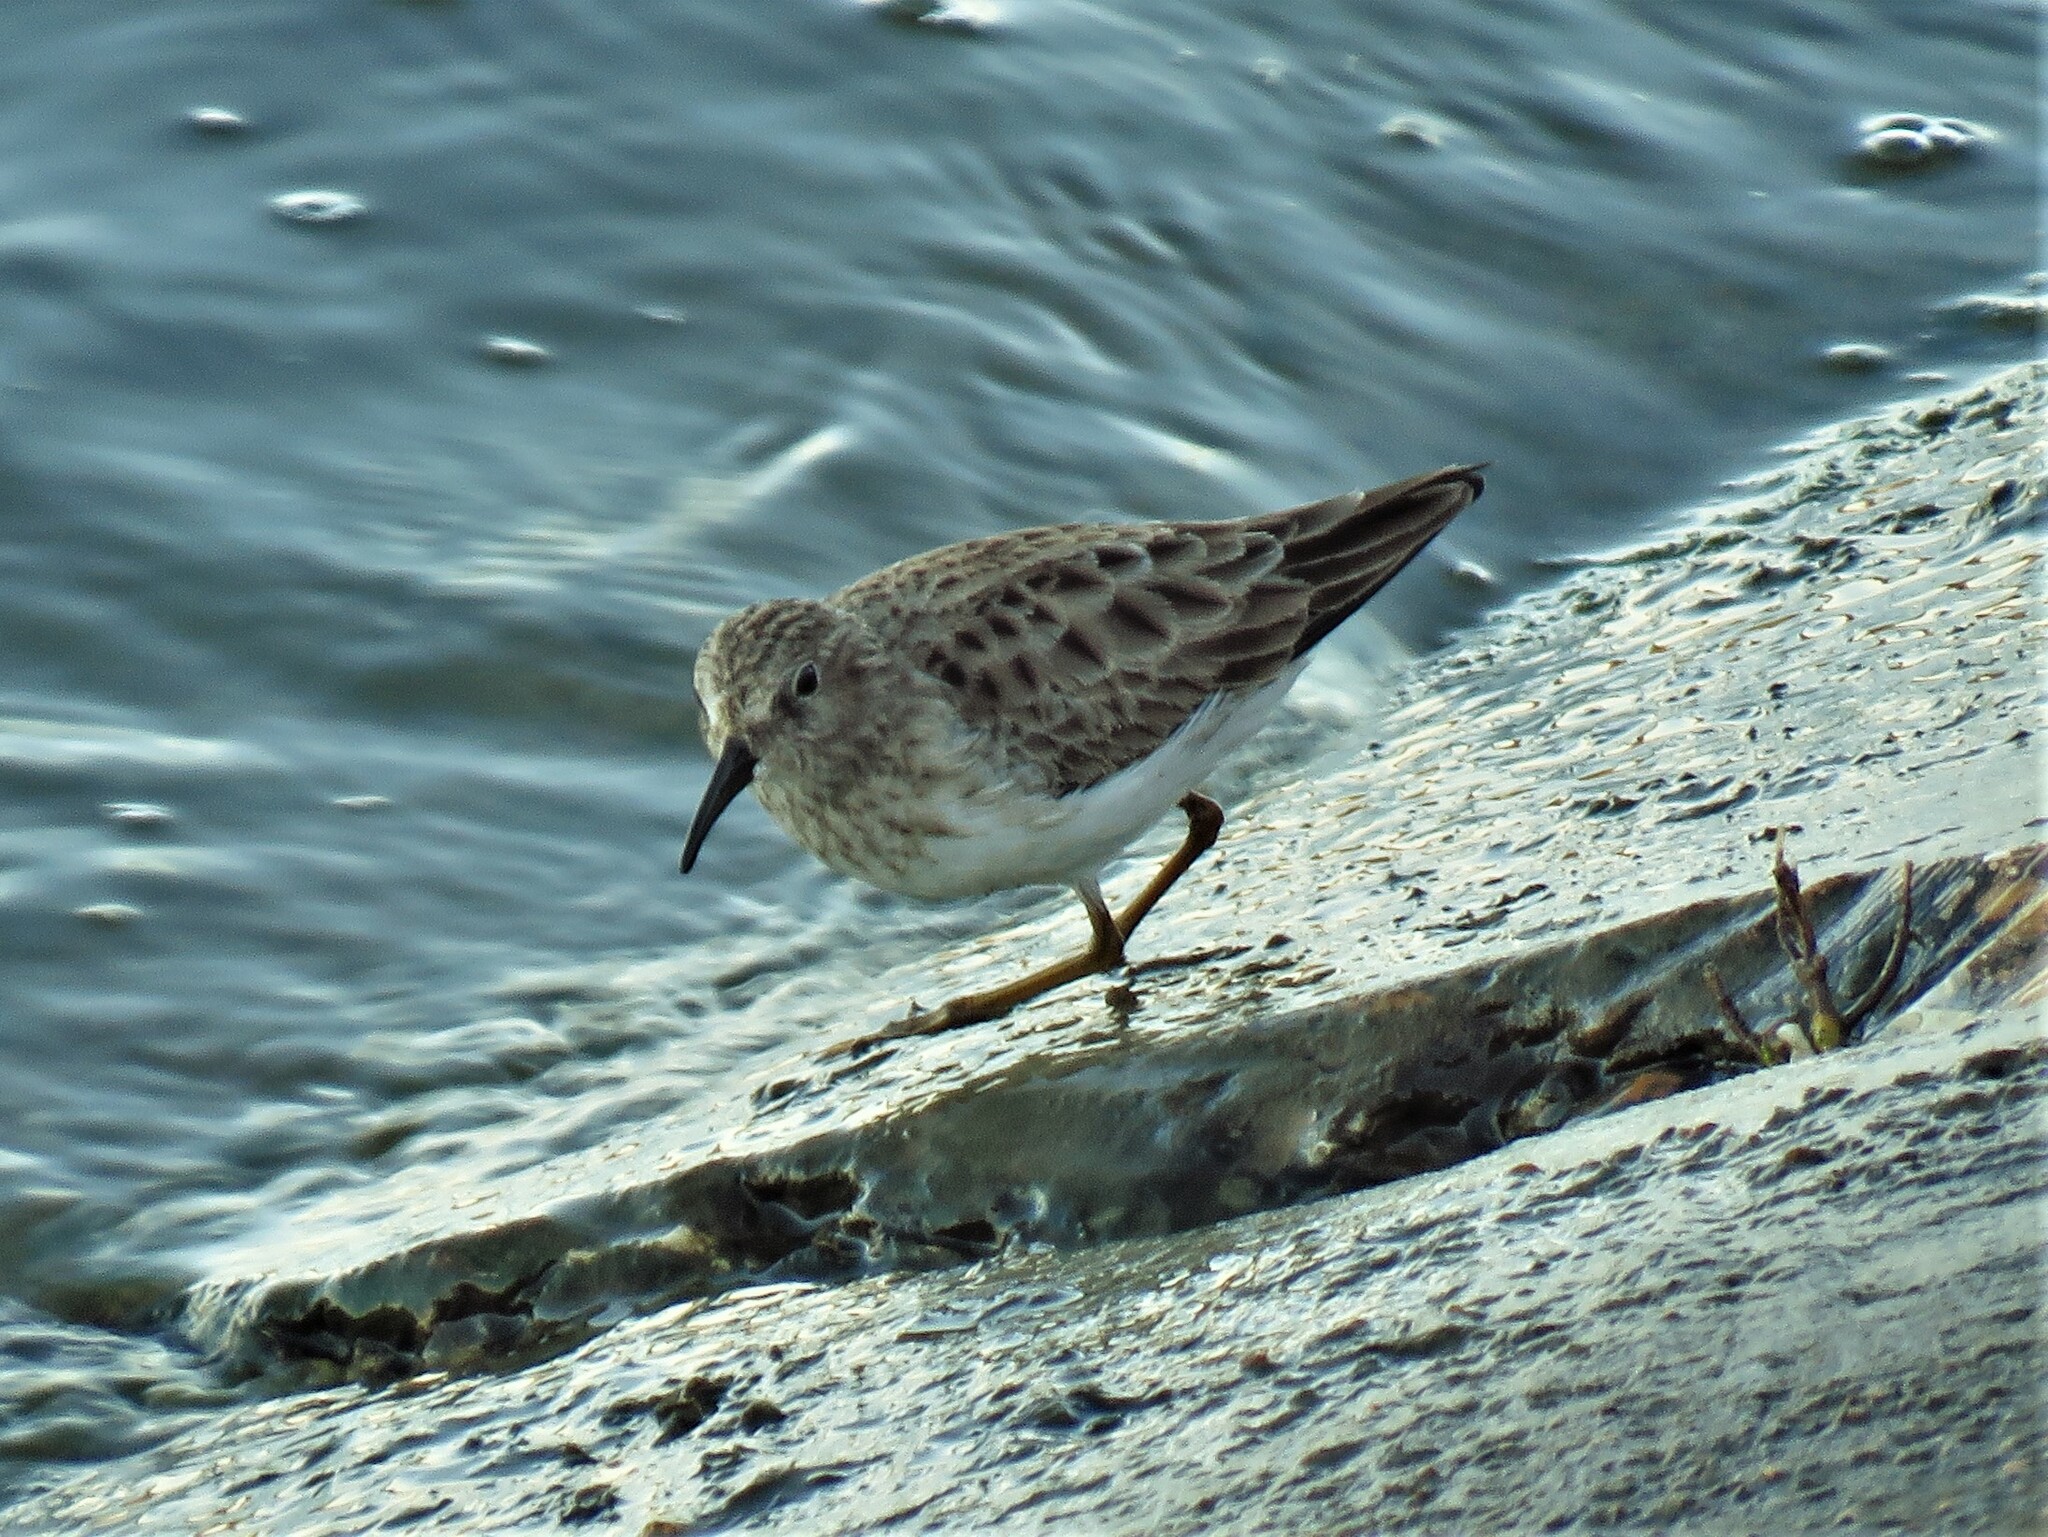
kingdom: Animalia
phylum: Chordata
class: Aves
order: Charadriiformes
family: Scolopacidae
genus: Calidris
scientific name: Calidris minutilla
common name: Least sandpiper
